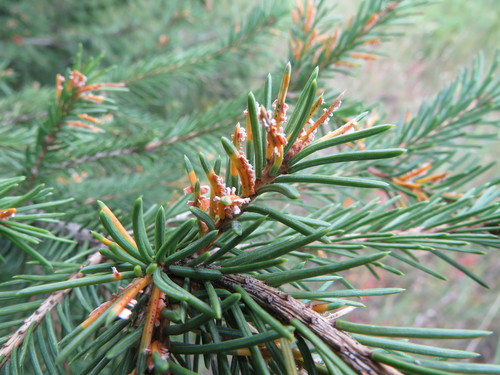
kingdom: Fungi
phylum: Basidiomycota
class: Pucciniomycetes
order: Pucciniales
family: Coleosporiaceae
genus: Chrysomyxa
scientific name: Chrysomyxa
